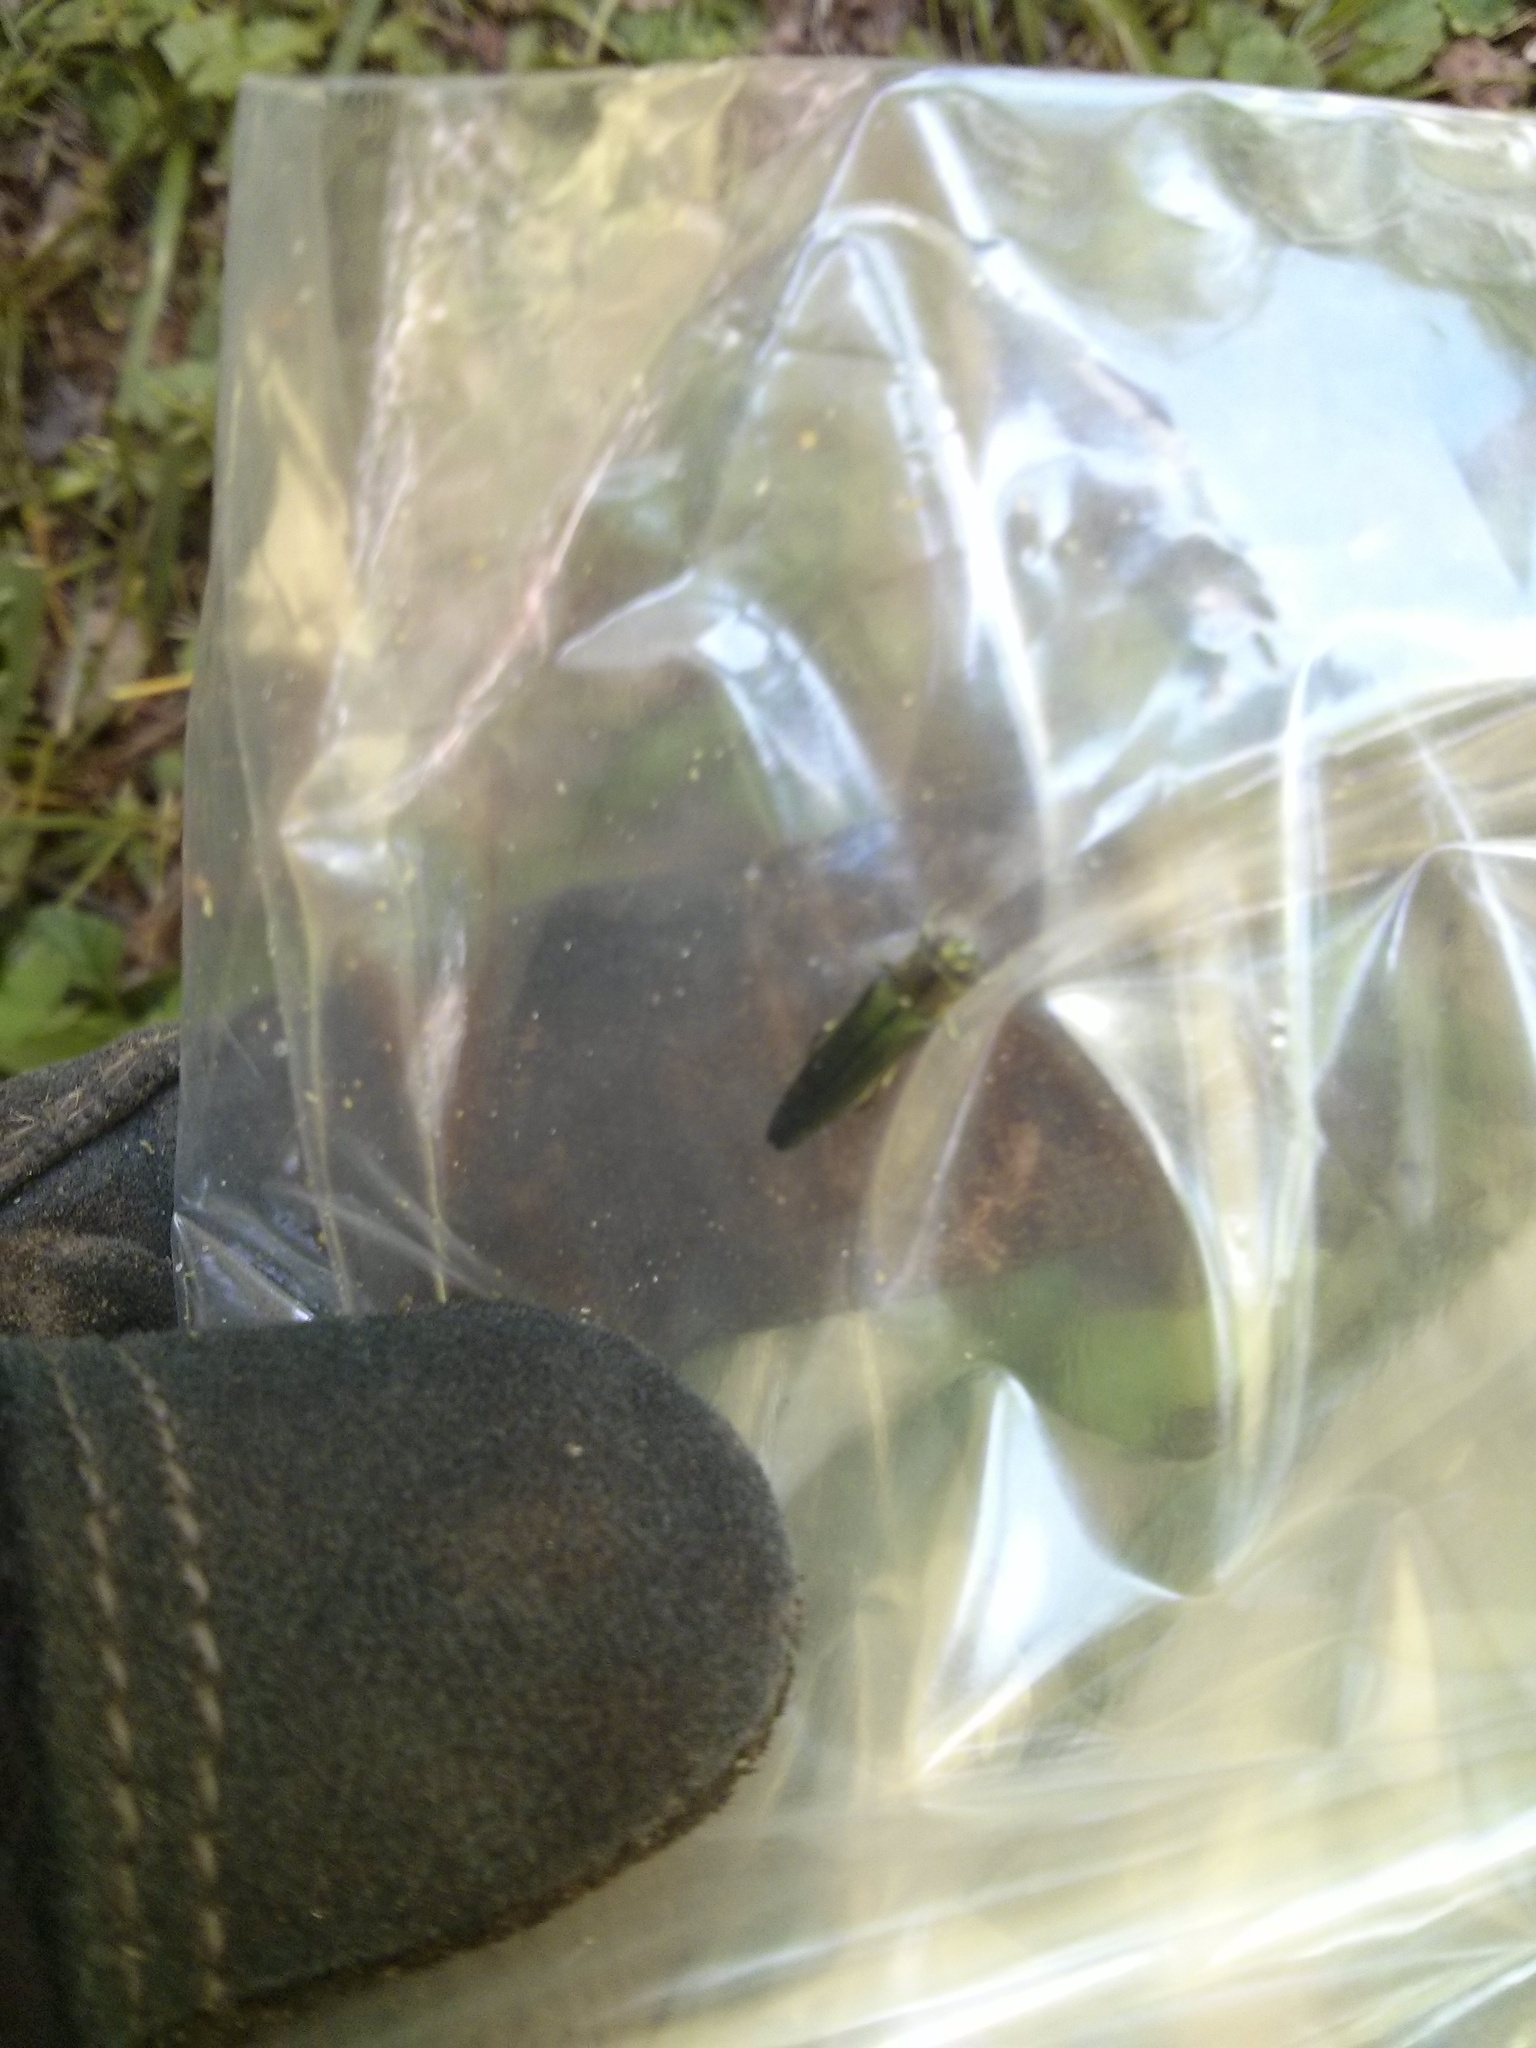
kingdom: Animalia
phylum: Arthropoda
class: Insecta
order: Coleoptera
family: Buprestidae
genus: Agrilus
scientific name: Agrilus planipennis
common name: Emerald ash borer
